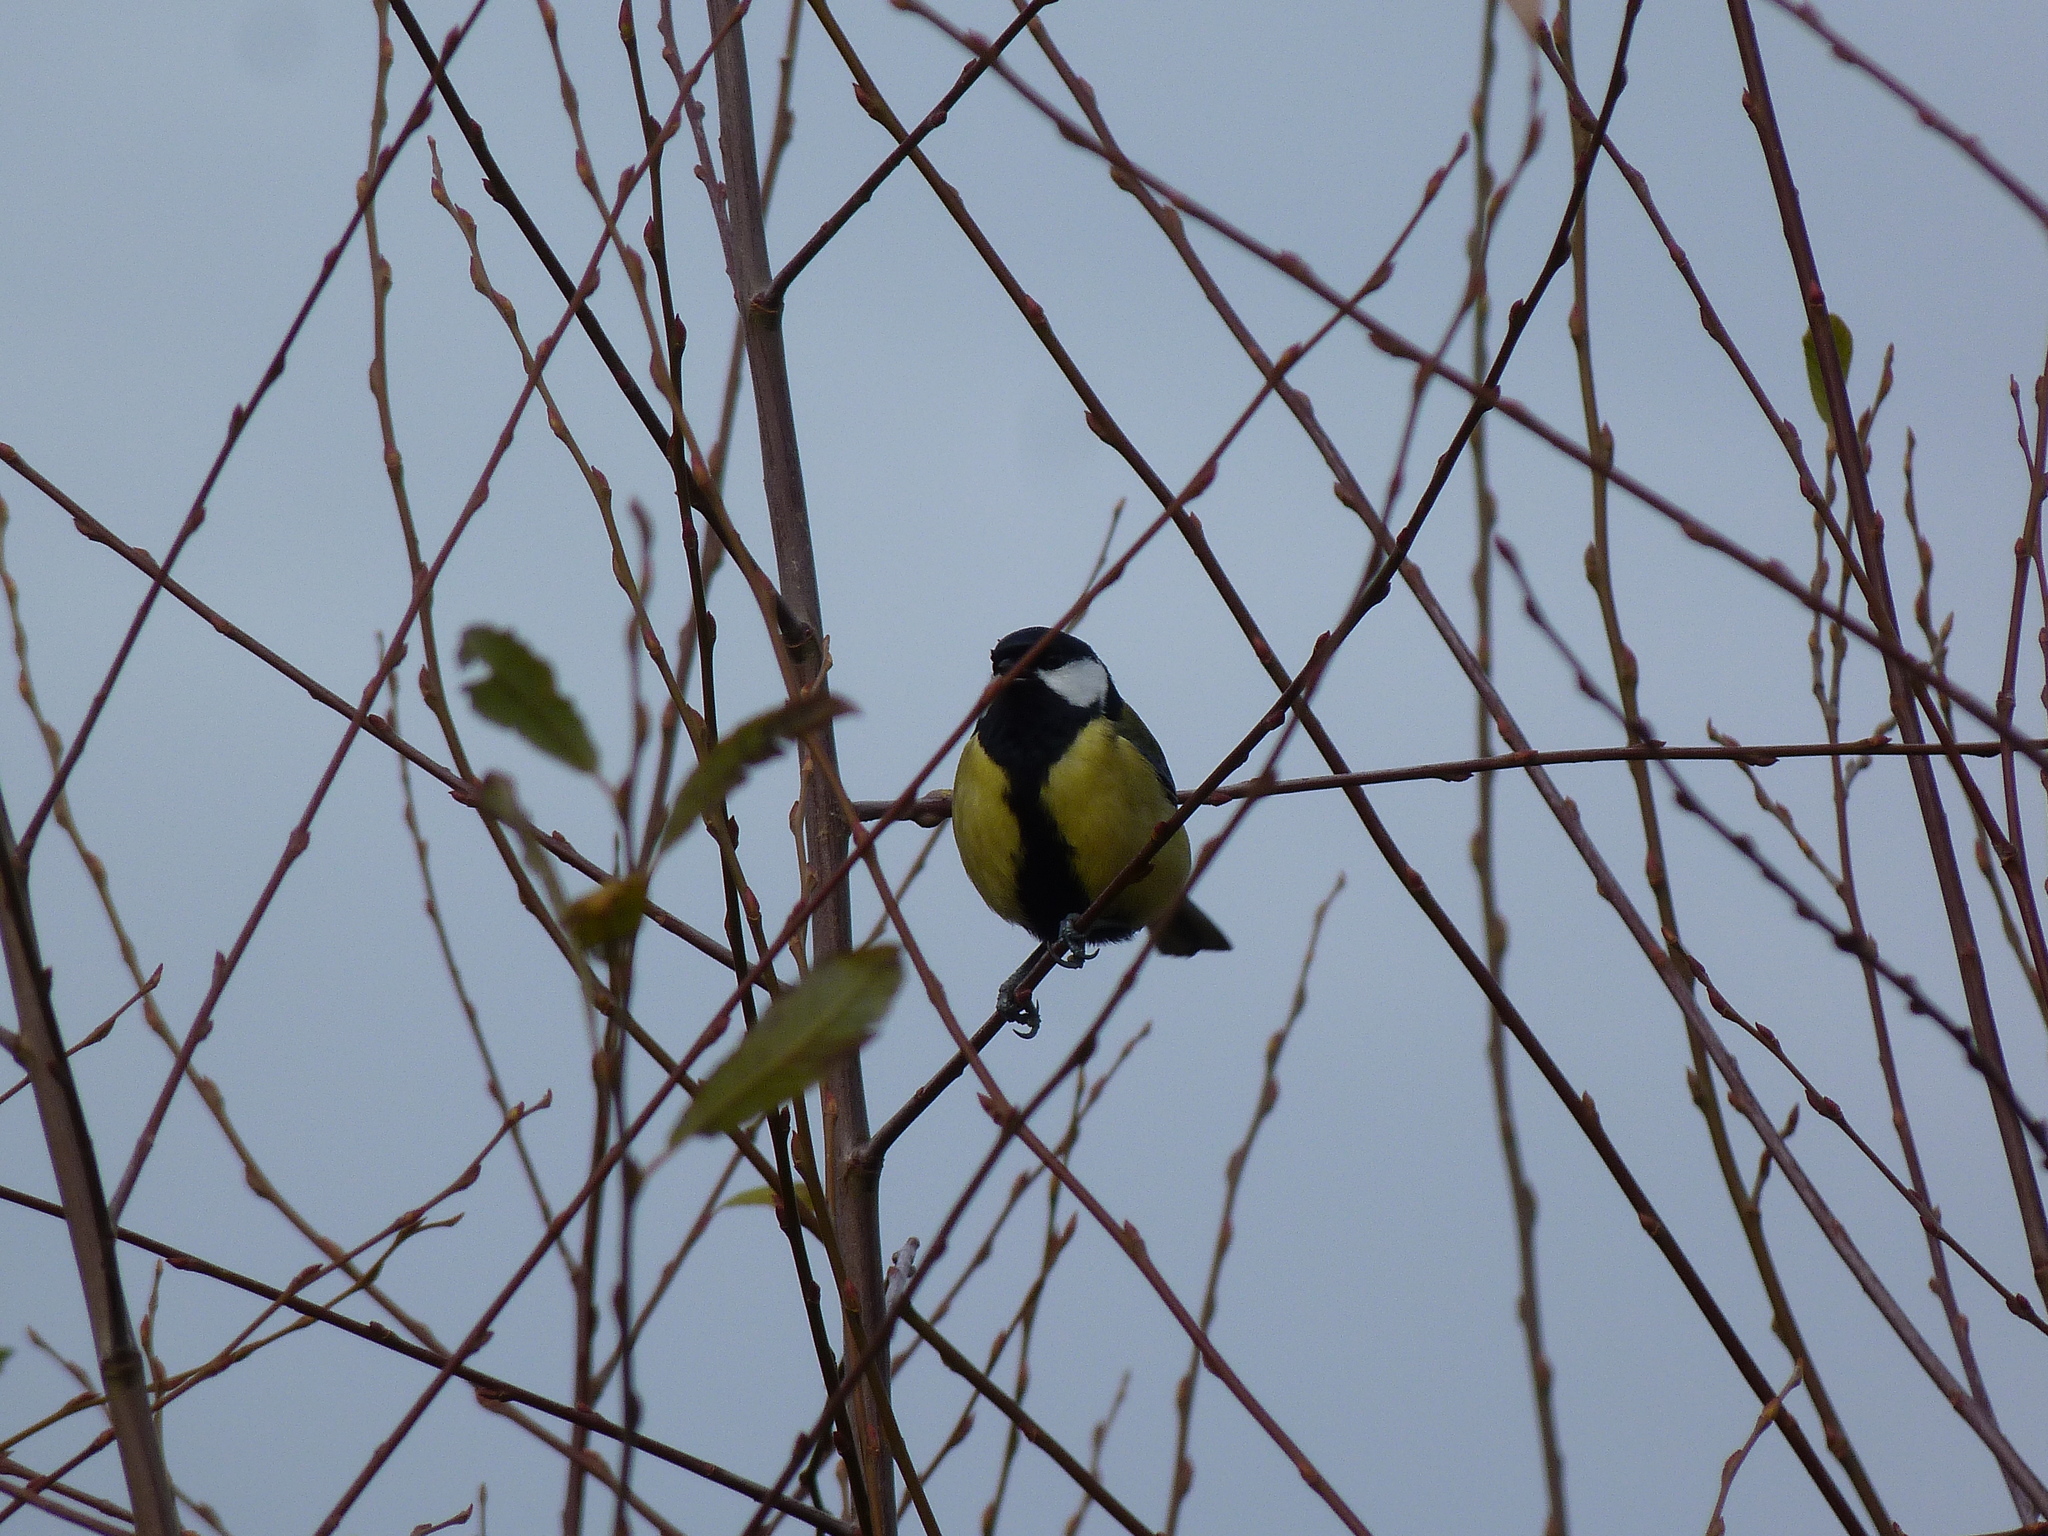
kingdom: Animalia
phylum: Chordata
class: Aves
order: Passeriformes
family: Paridae
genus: Parus
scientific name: Parus major
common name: Great tit
